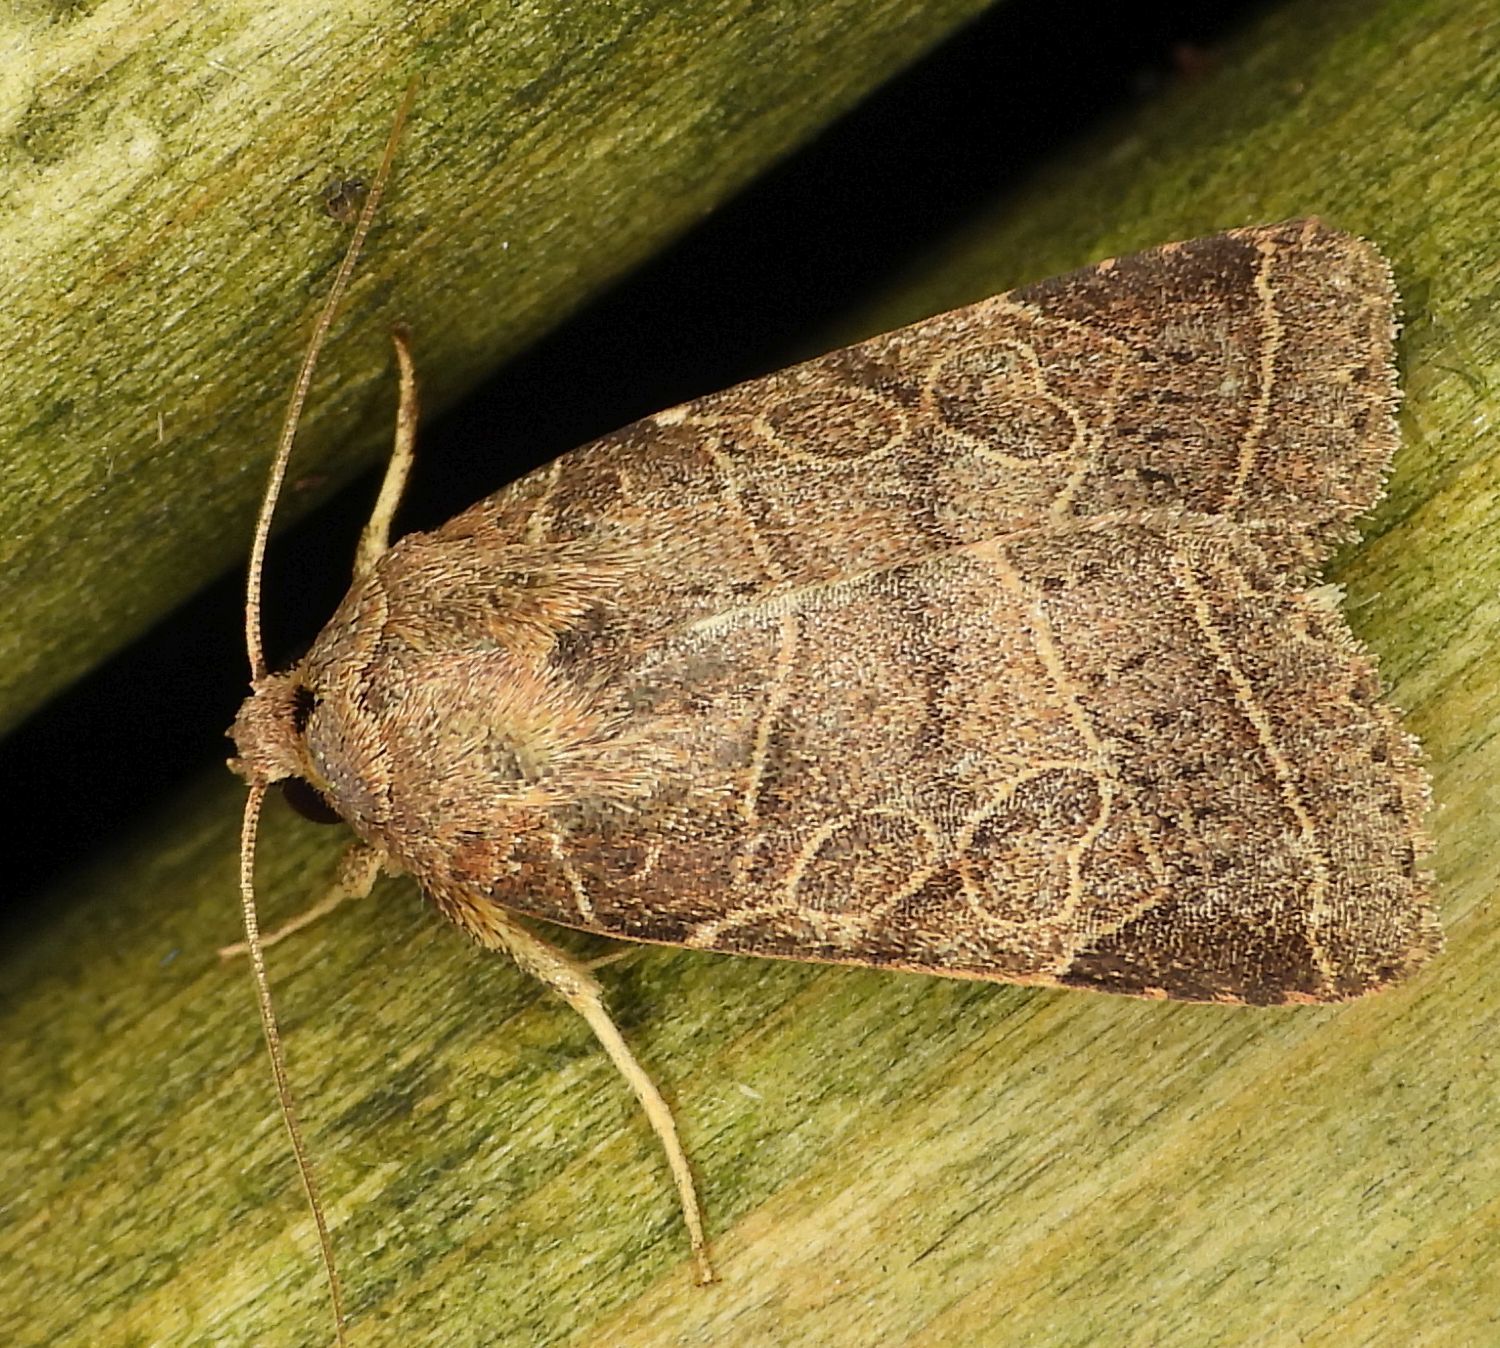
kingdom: Animalia
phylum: Arthropoda
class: Insecta
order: Lepidoptera
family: Noctuidae
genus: Orthodes
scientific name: Orthodes majuscula
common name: Rustic quaker
